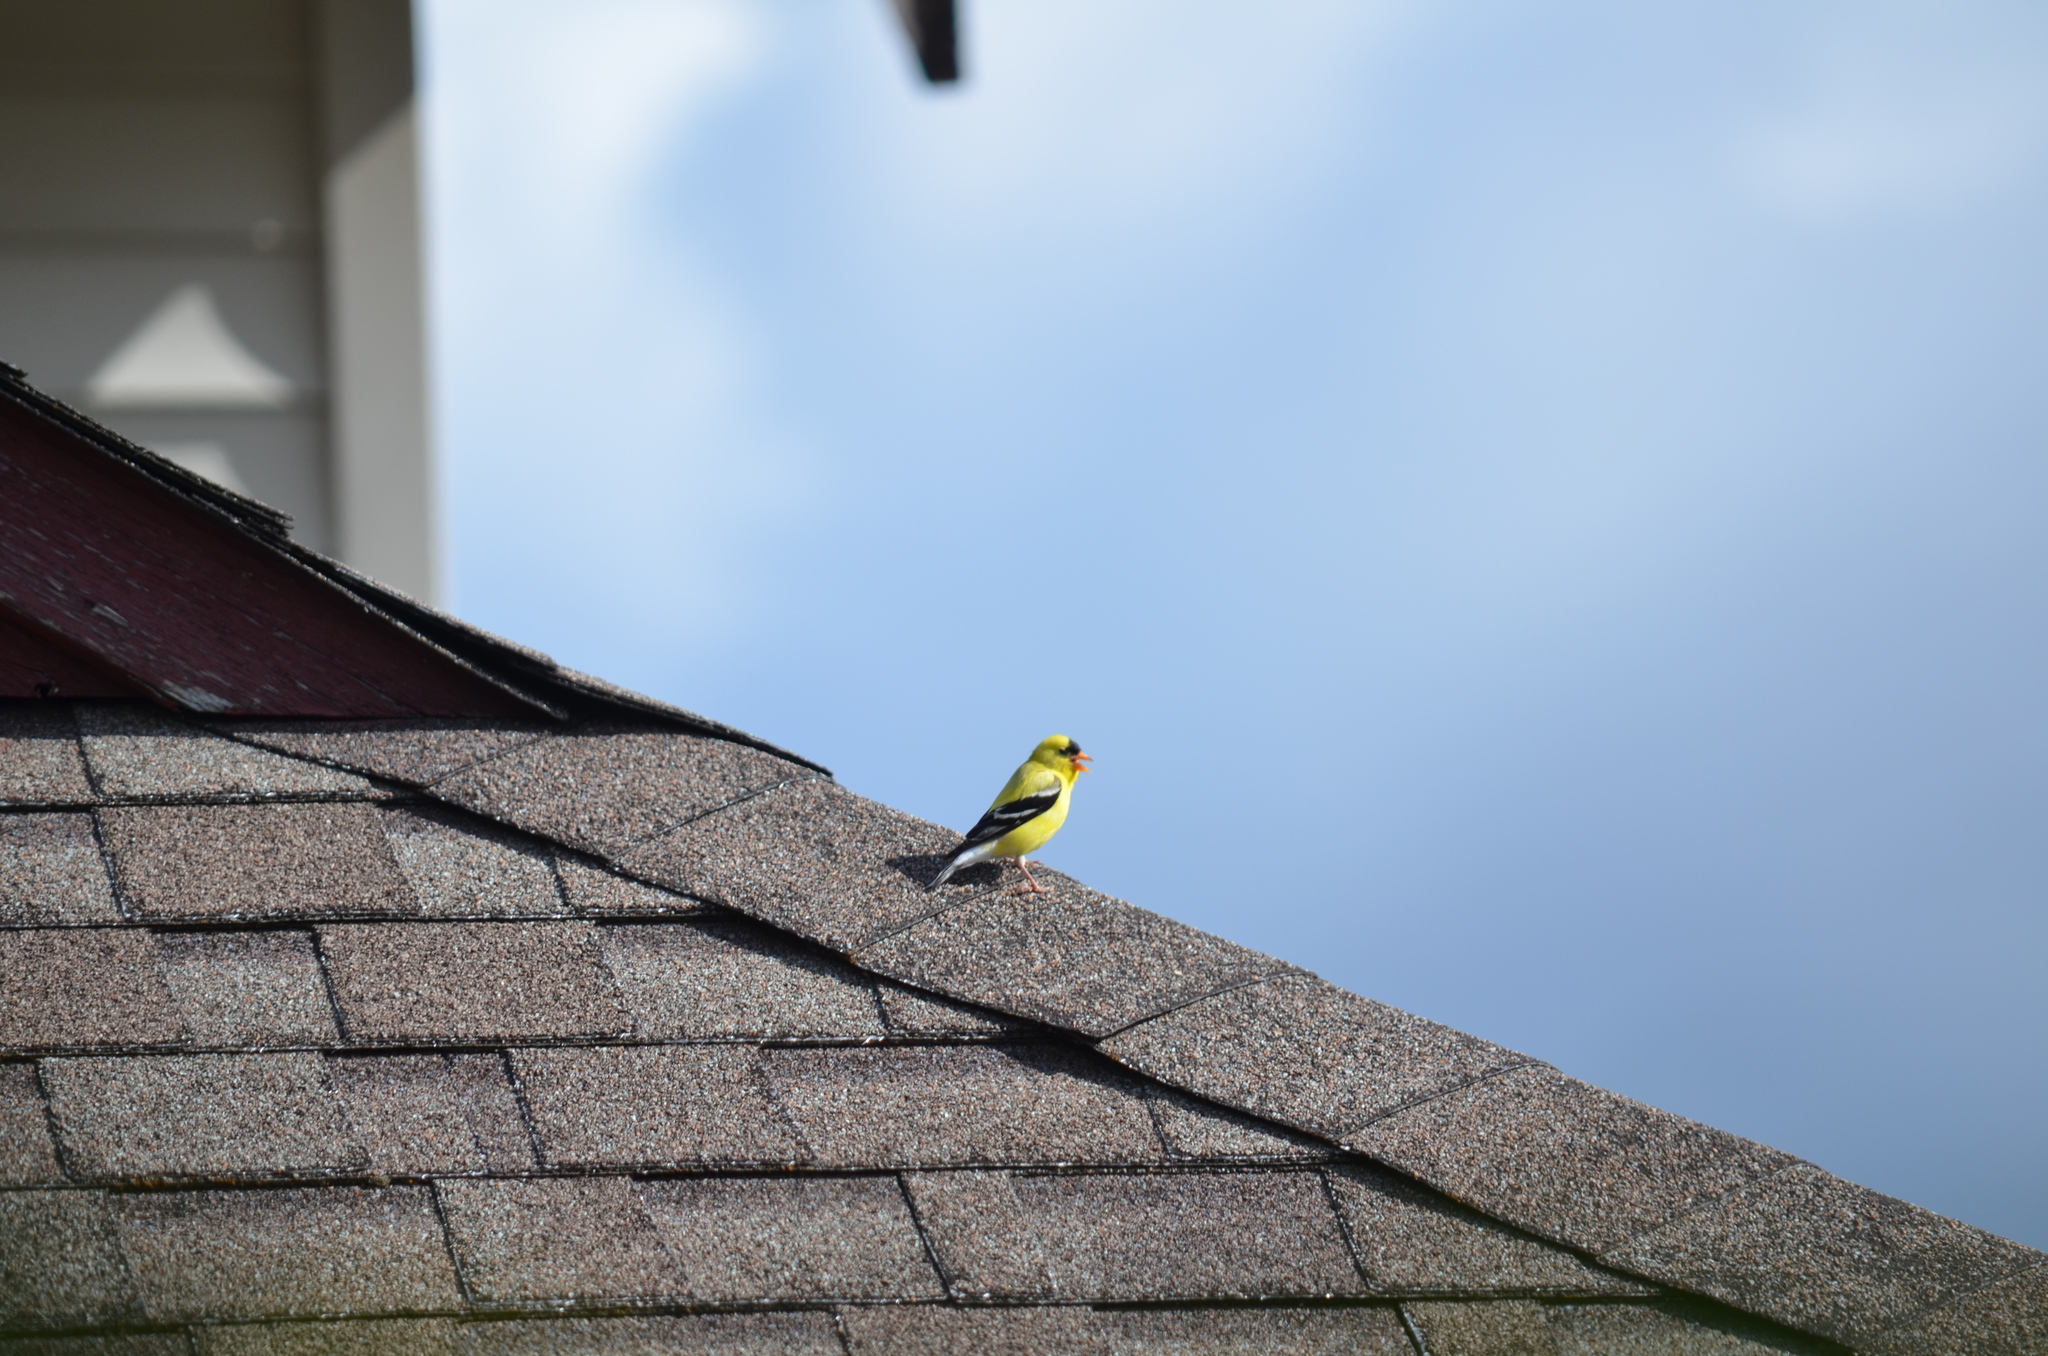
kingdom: Animalia
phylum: Chordata
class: Aves
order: Passeriformes
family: Fringillidae
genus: Spinus
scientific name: Spinus tristis
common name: American goldfinch
